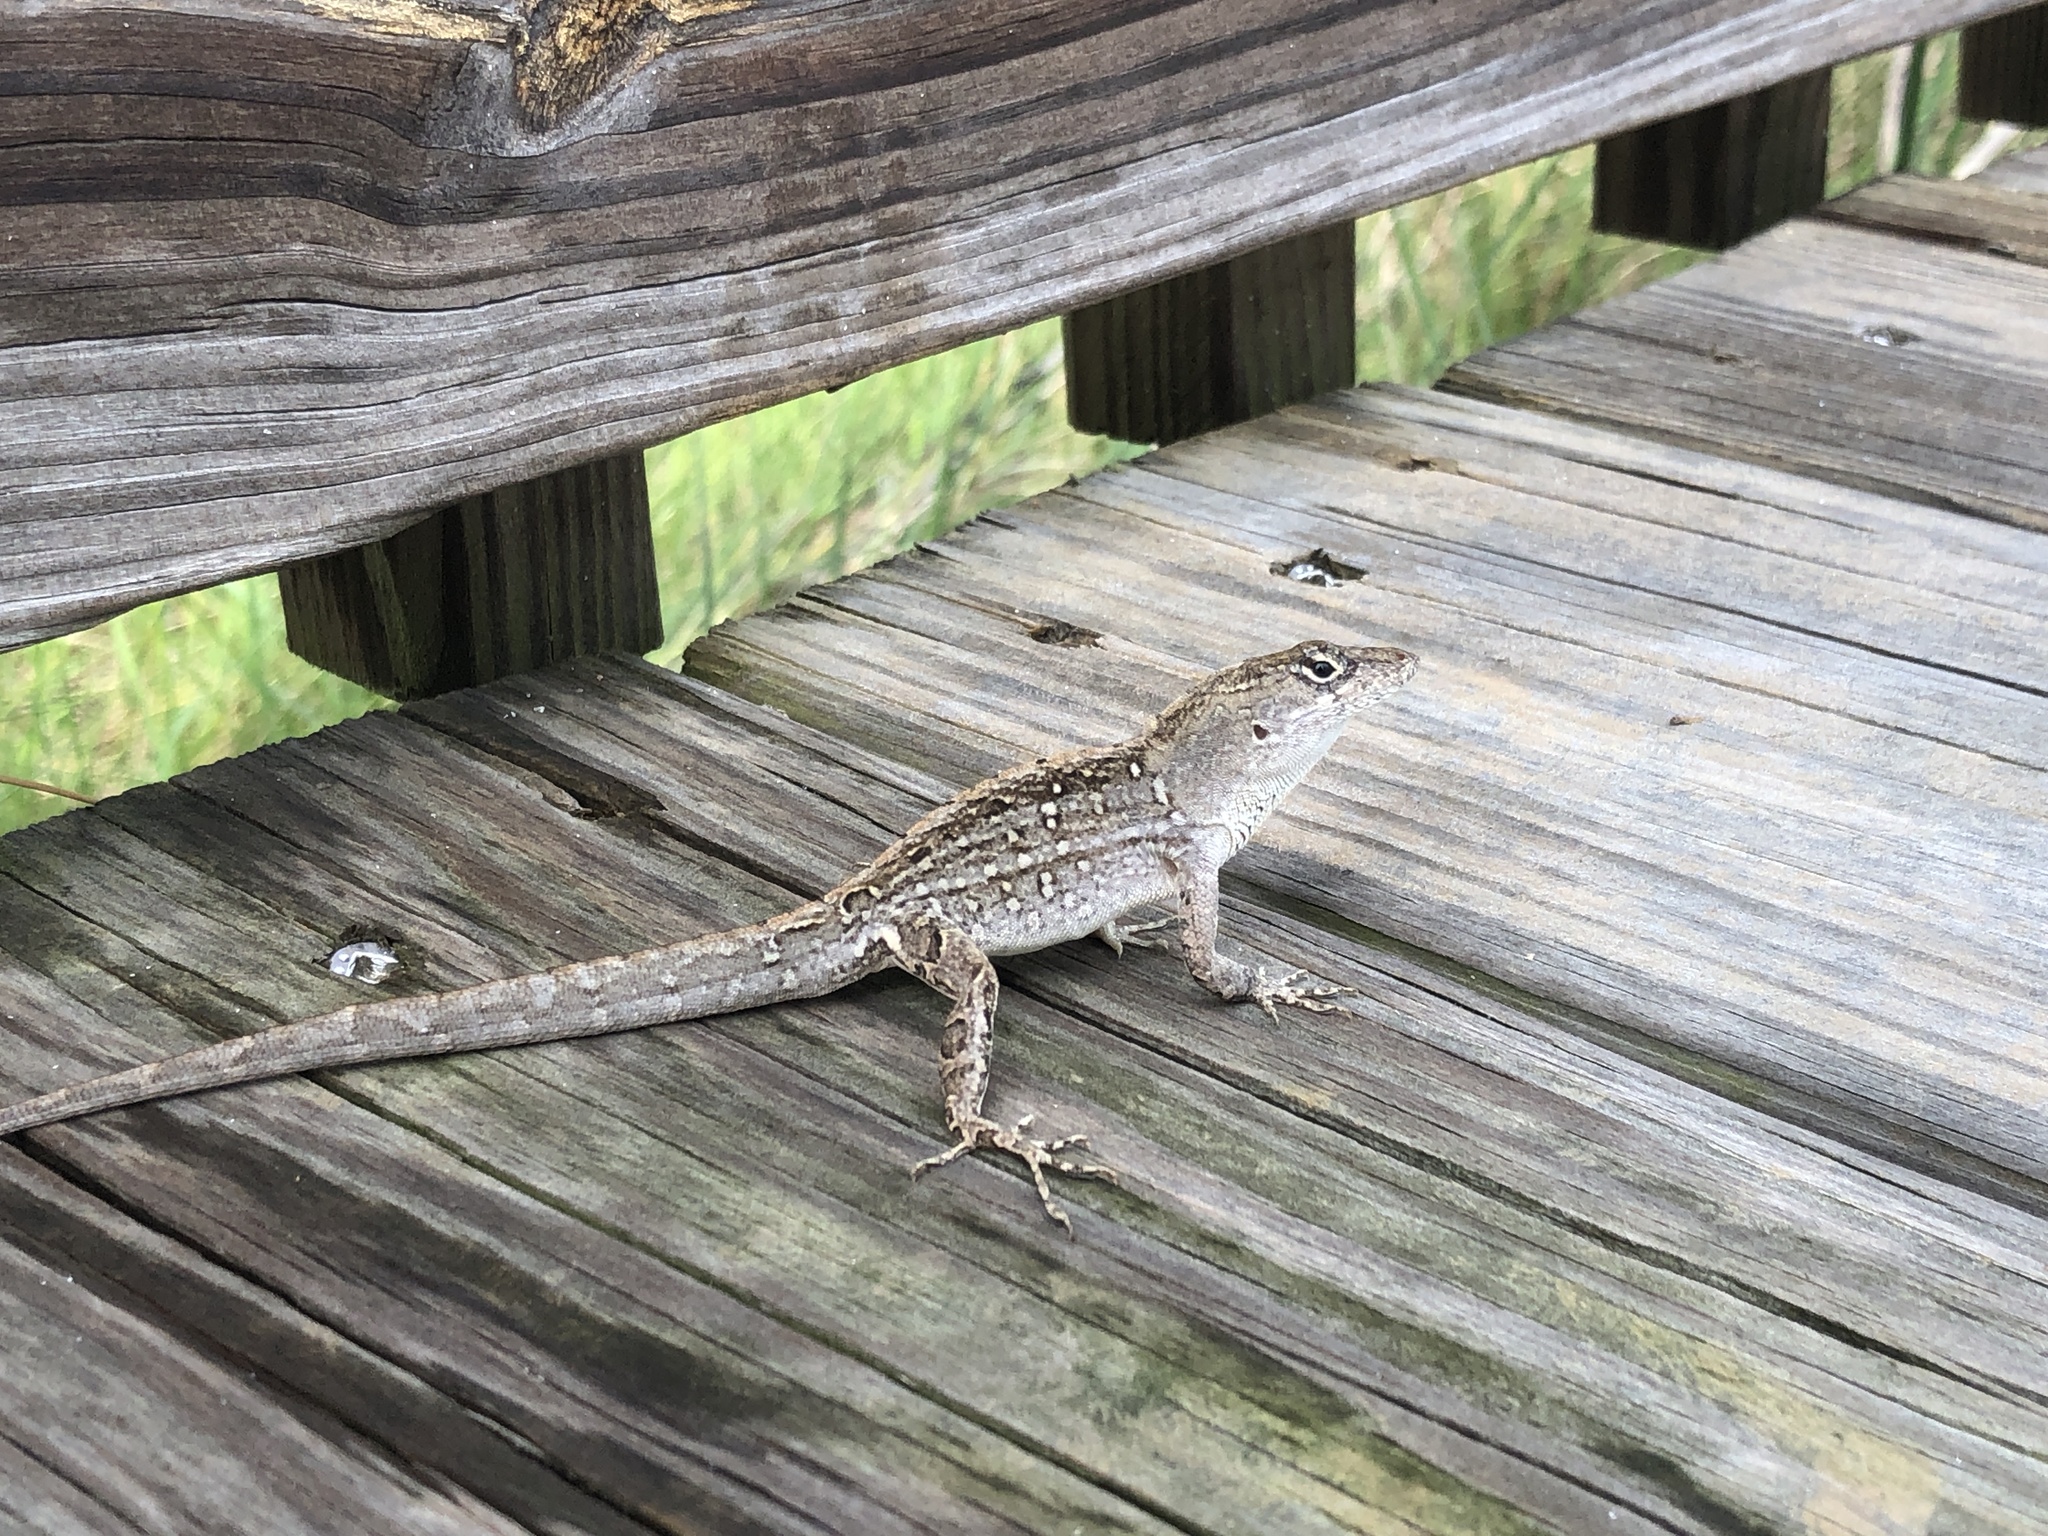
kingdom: Animalia
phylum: Chordata
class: Squamata
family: Dactyloidae
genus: Anolis
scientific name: Anolis sagrei
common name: Brown anole
